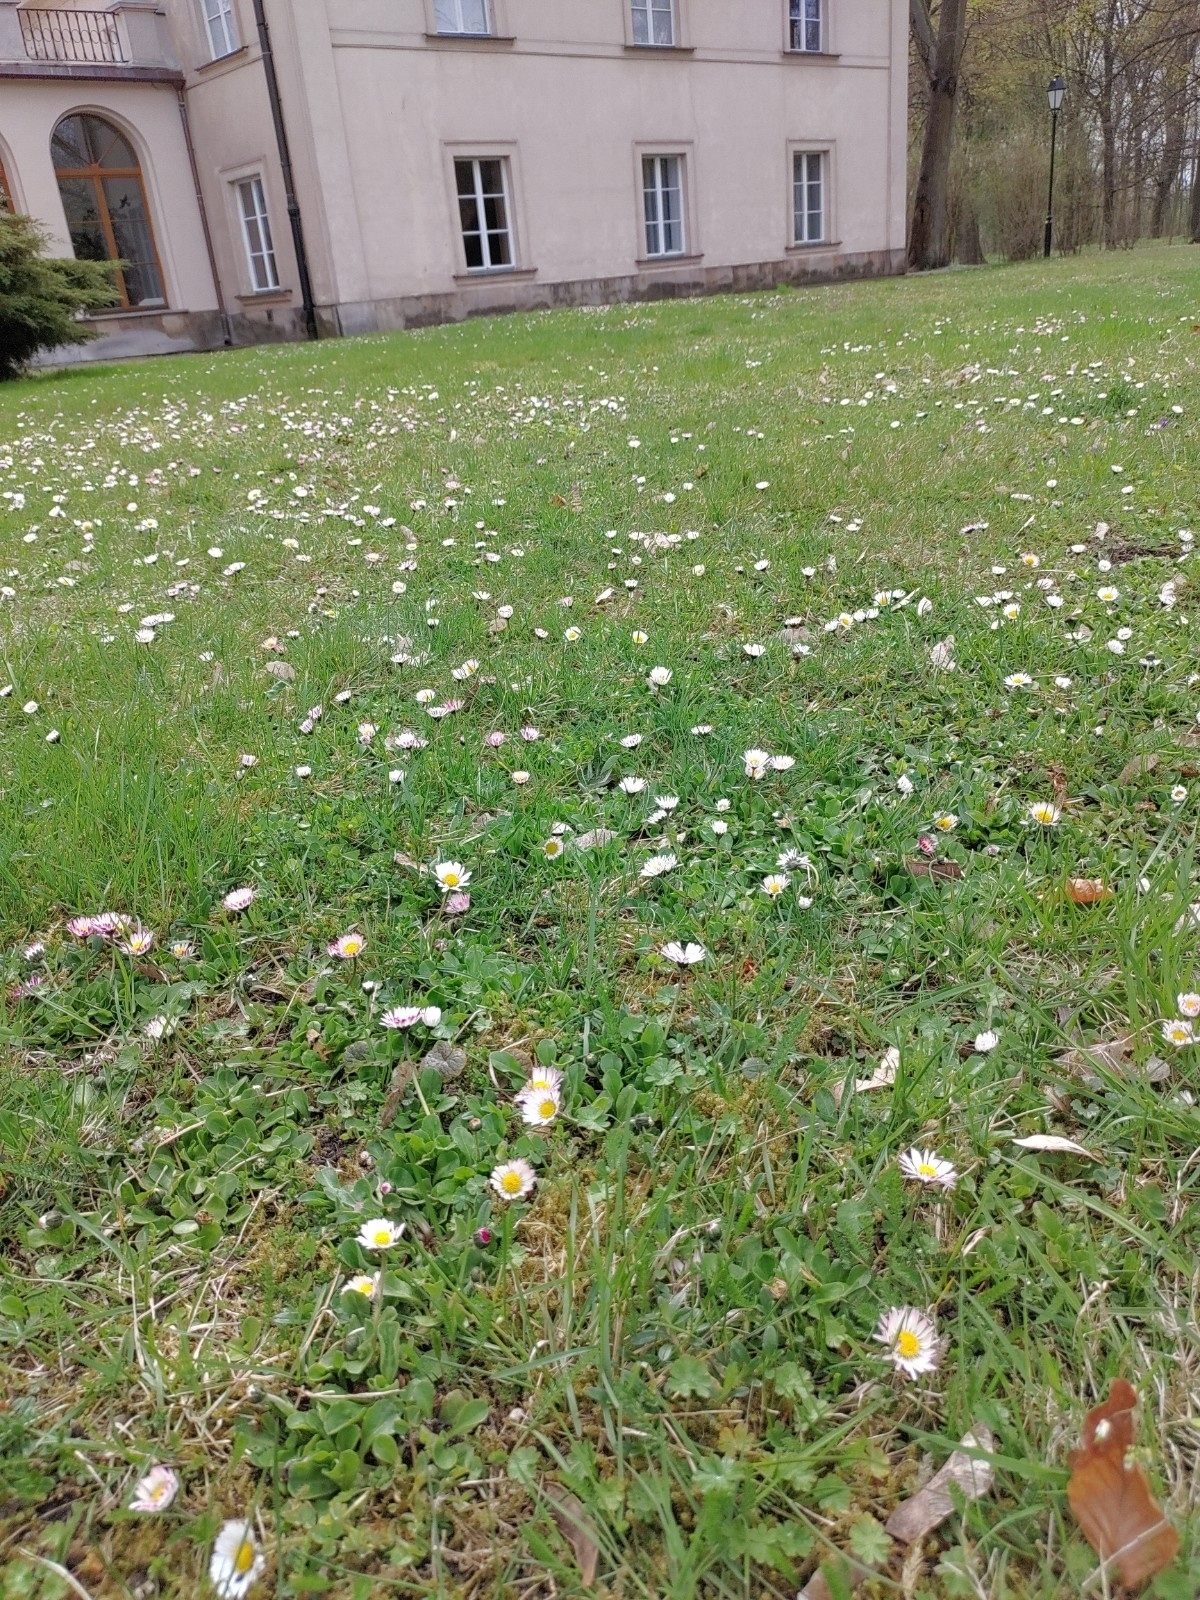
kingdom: Plantae
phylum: Tracheophyta
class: Magnoliopsida
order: Asterales
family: Asteraceae
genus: Bellis
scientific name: Bellis perennis
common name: Lawndaisy
